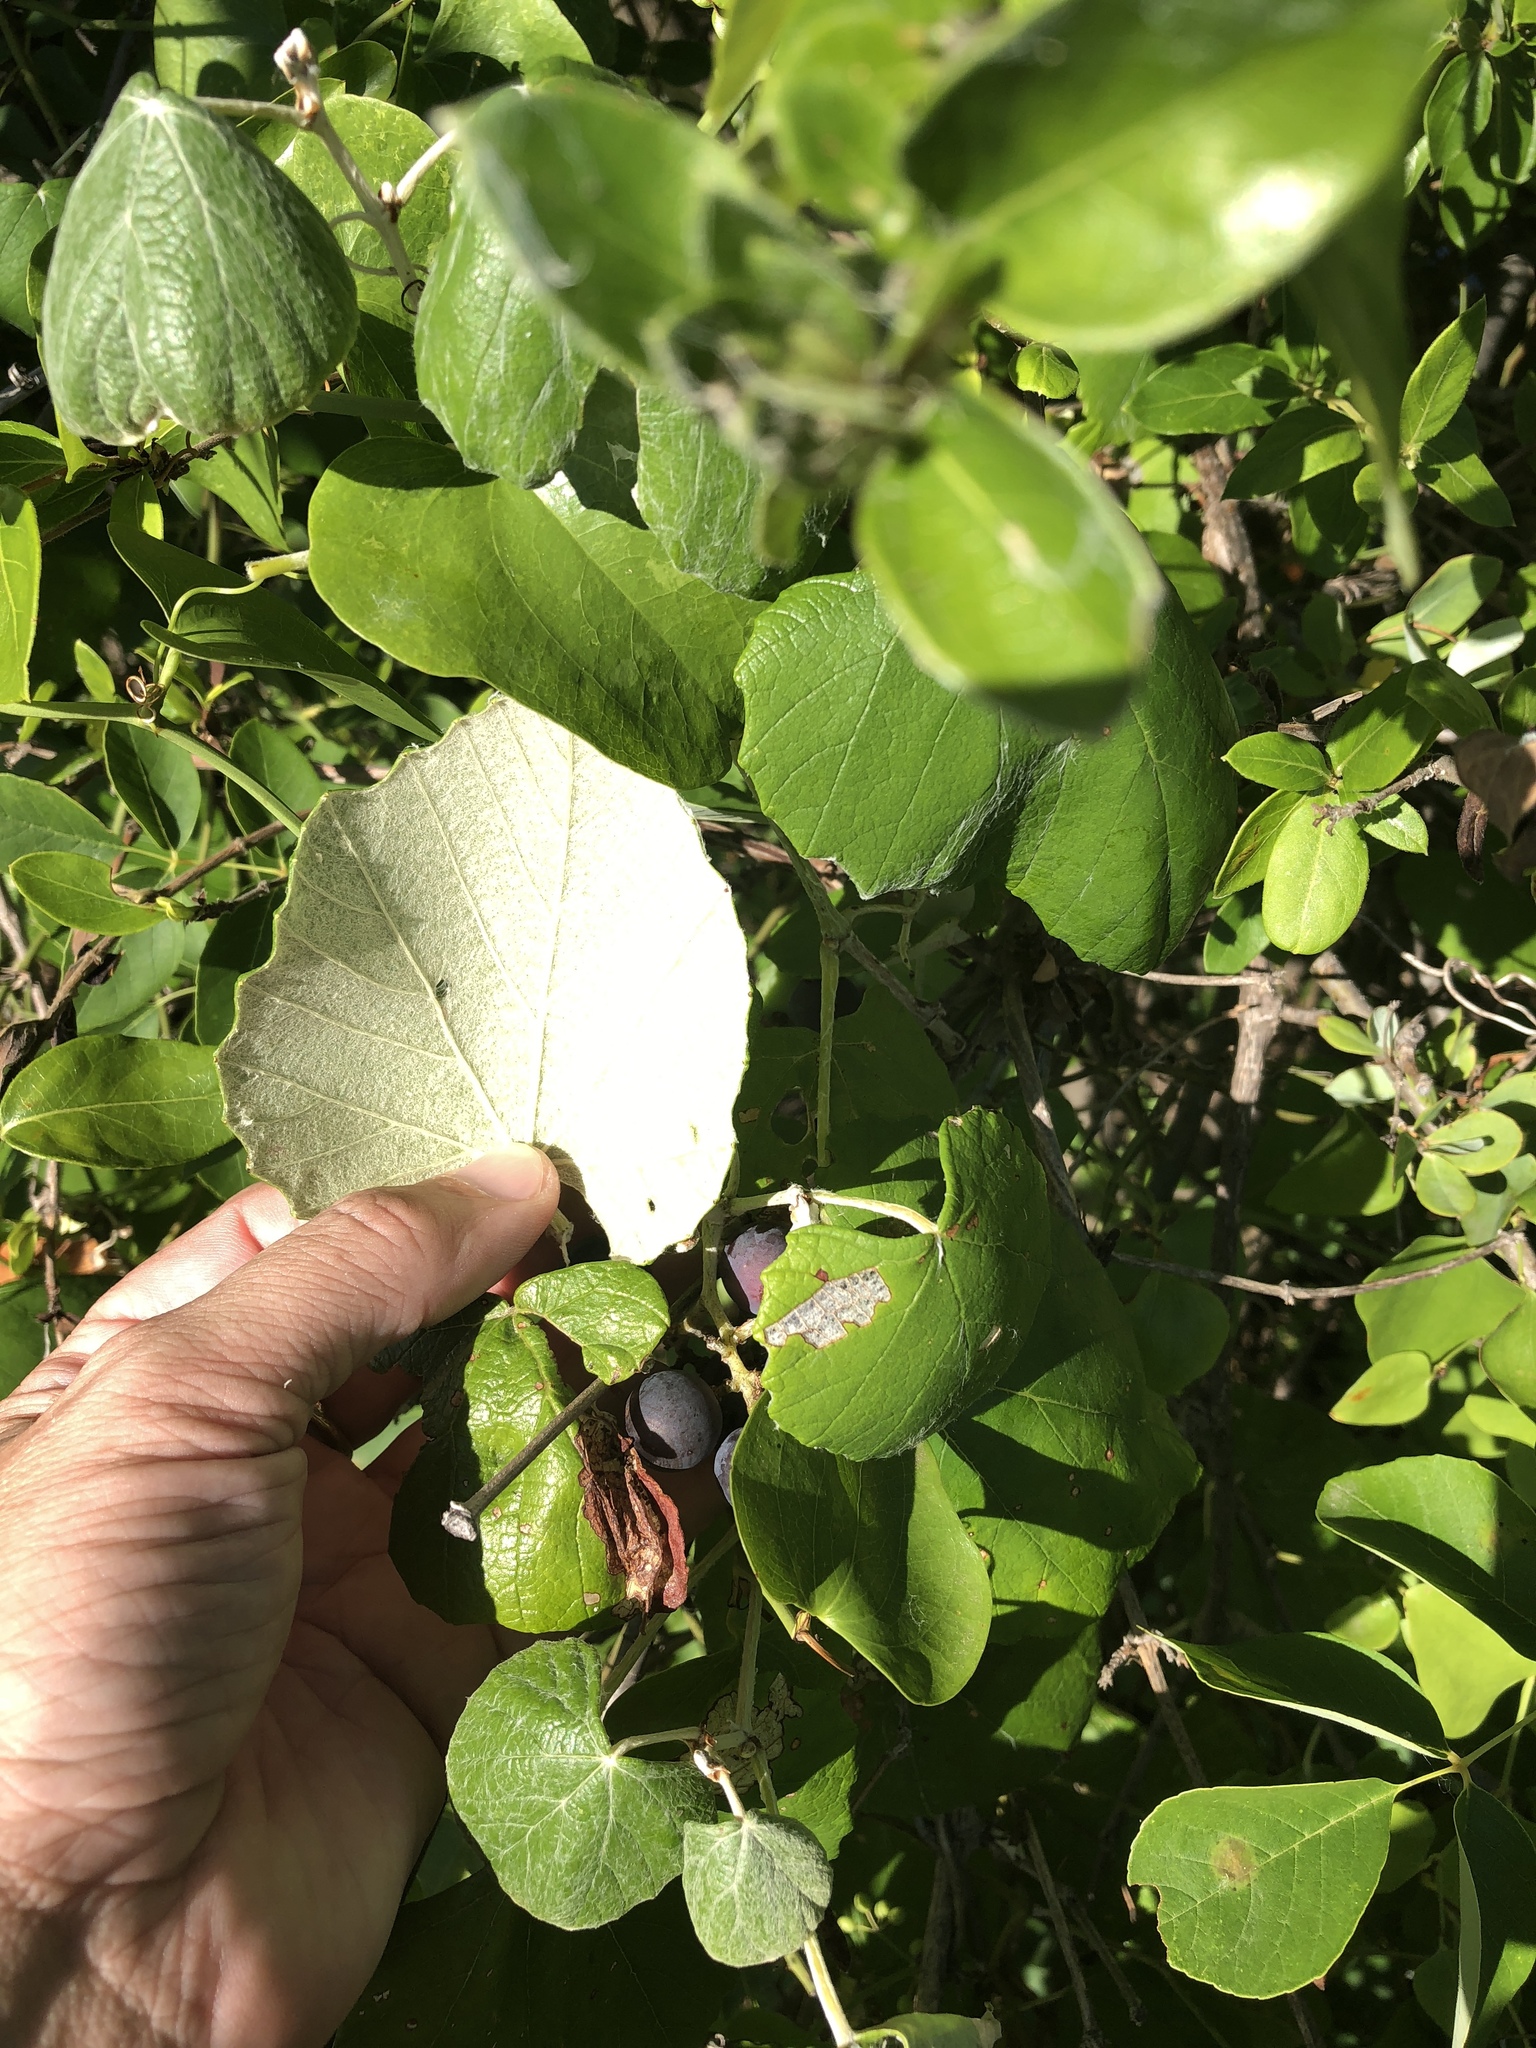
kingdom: Plantae
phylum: Tracheophyta
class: Magnoliopsida
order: Vitales
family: Vitaceae
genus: Vitis
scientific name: Vitis mustangensis
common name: Mustang grape
